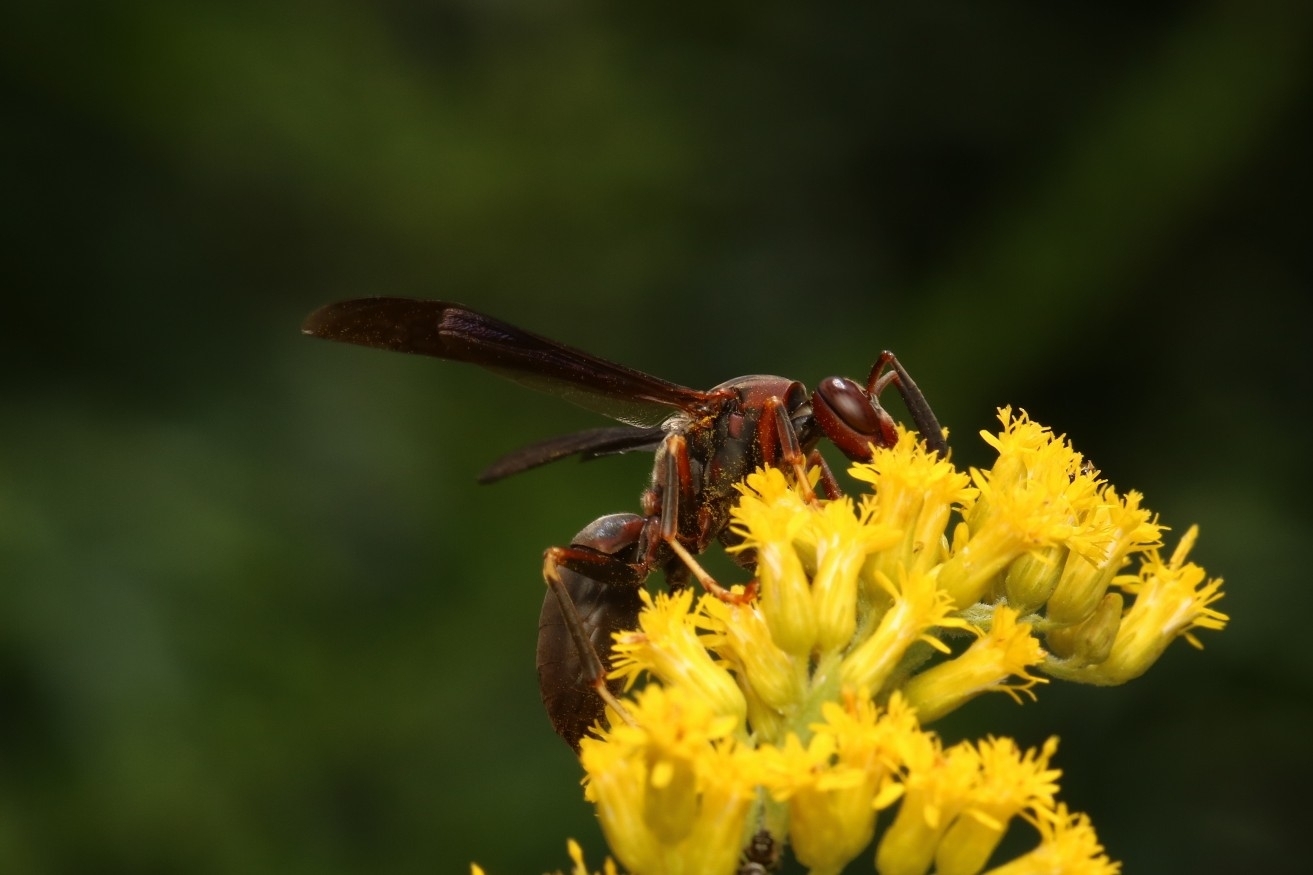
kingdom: Animalia
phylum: Arthropoda
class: Insecta
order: Hymenoptera
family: Eumenidae
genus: Polistes
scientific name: Polistes metricus
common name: Metric paper wasp
